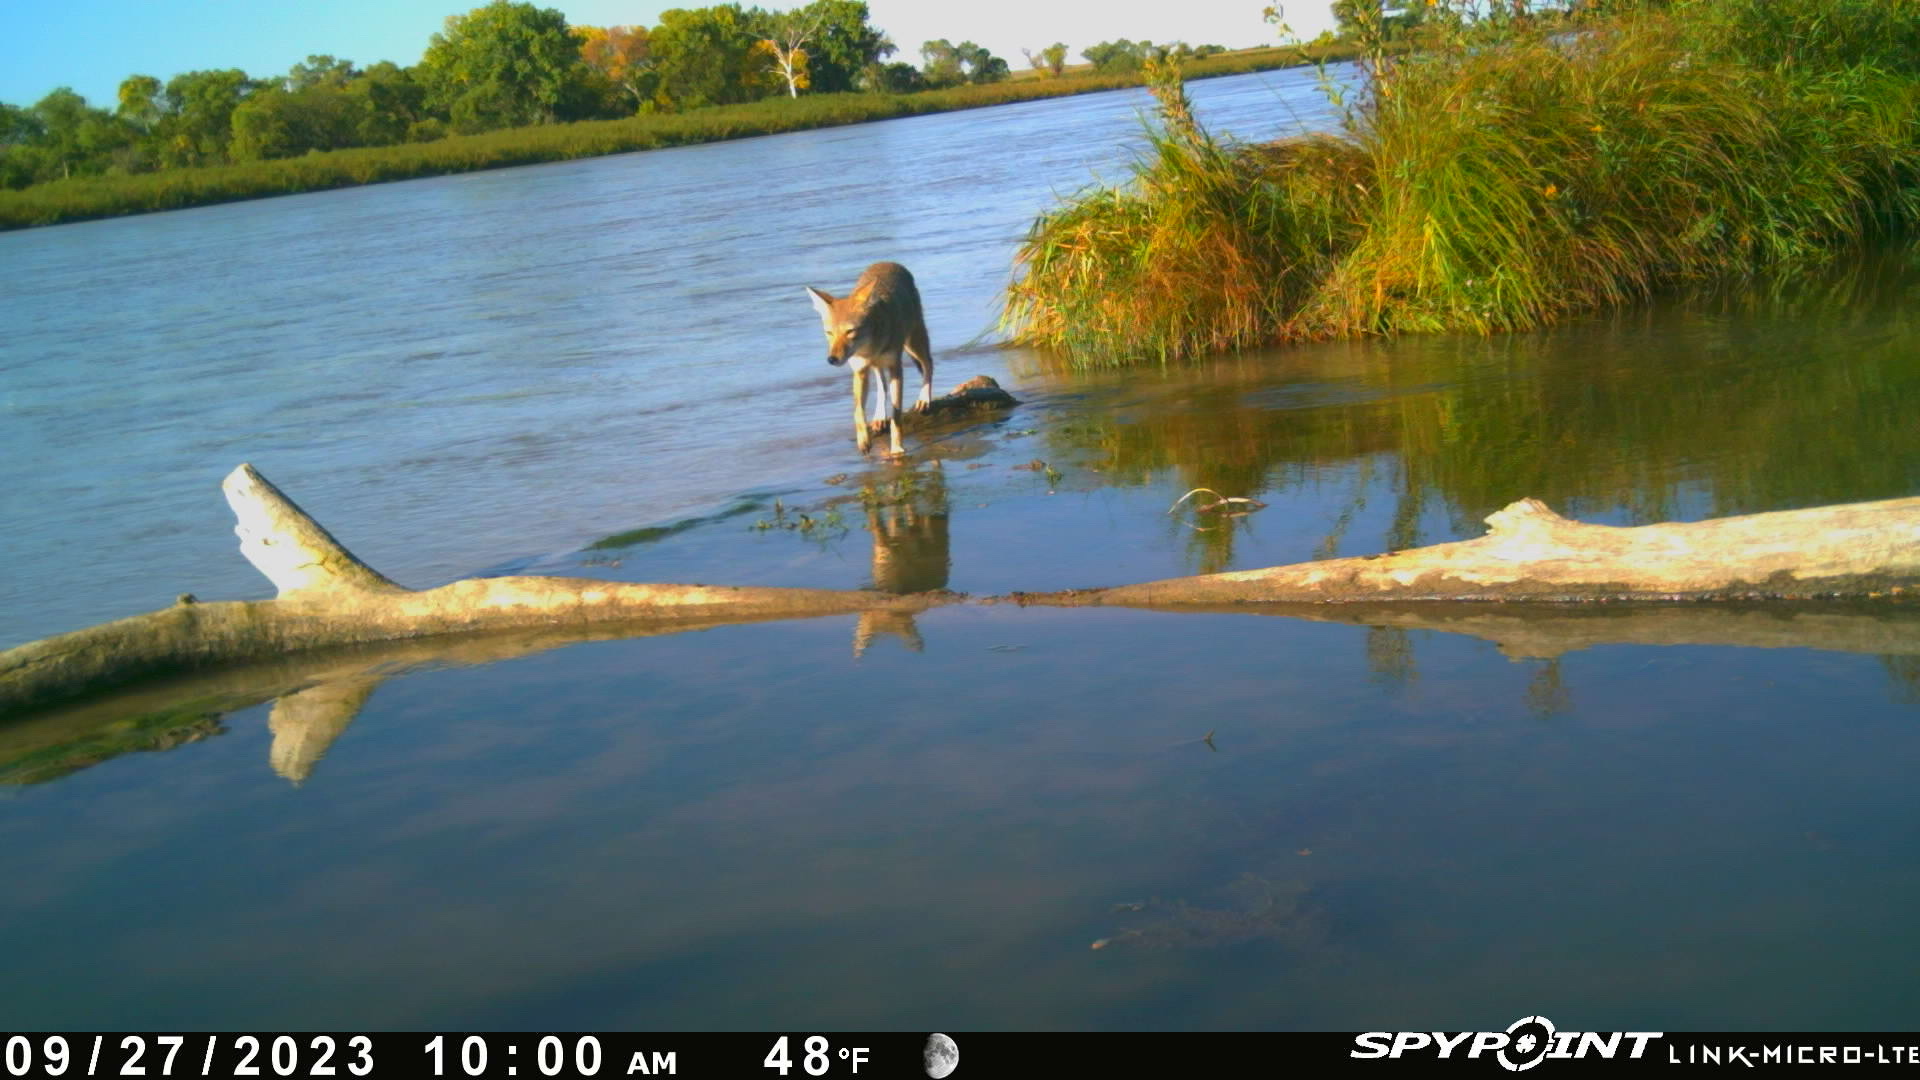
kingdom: Animalia
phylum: Chordata
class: Mammalia
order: Carnivora
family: Canidae
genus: Canis
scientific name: Canis latrans
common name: Coyote
